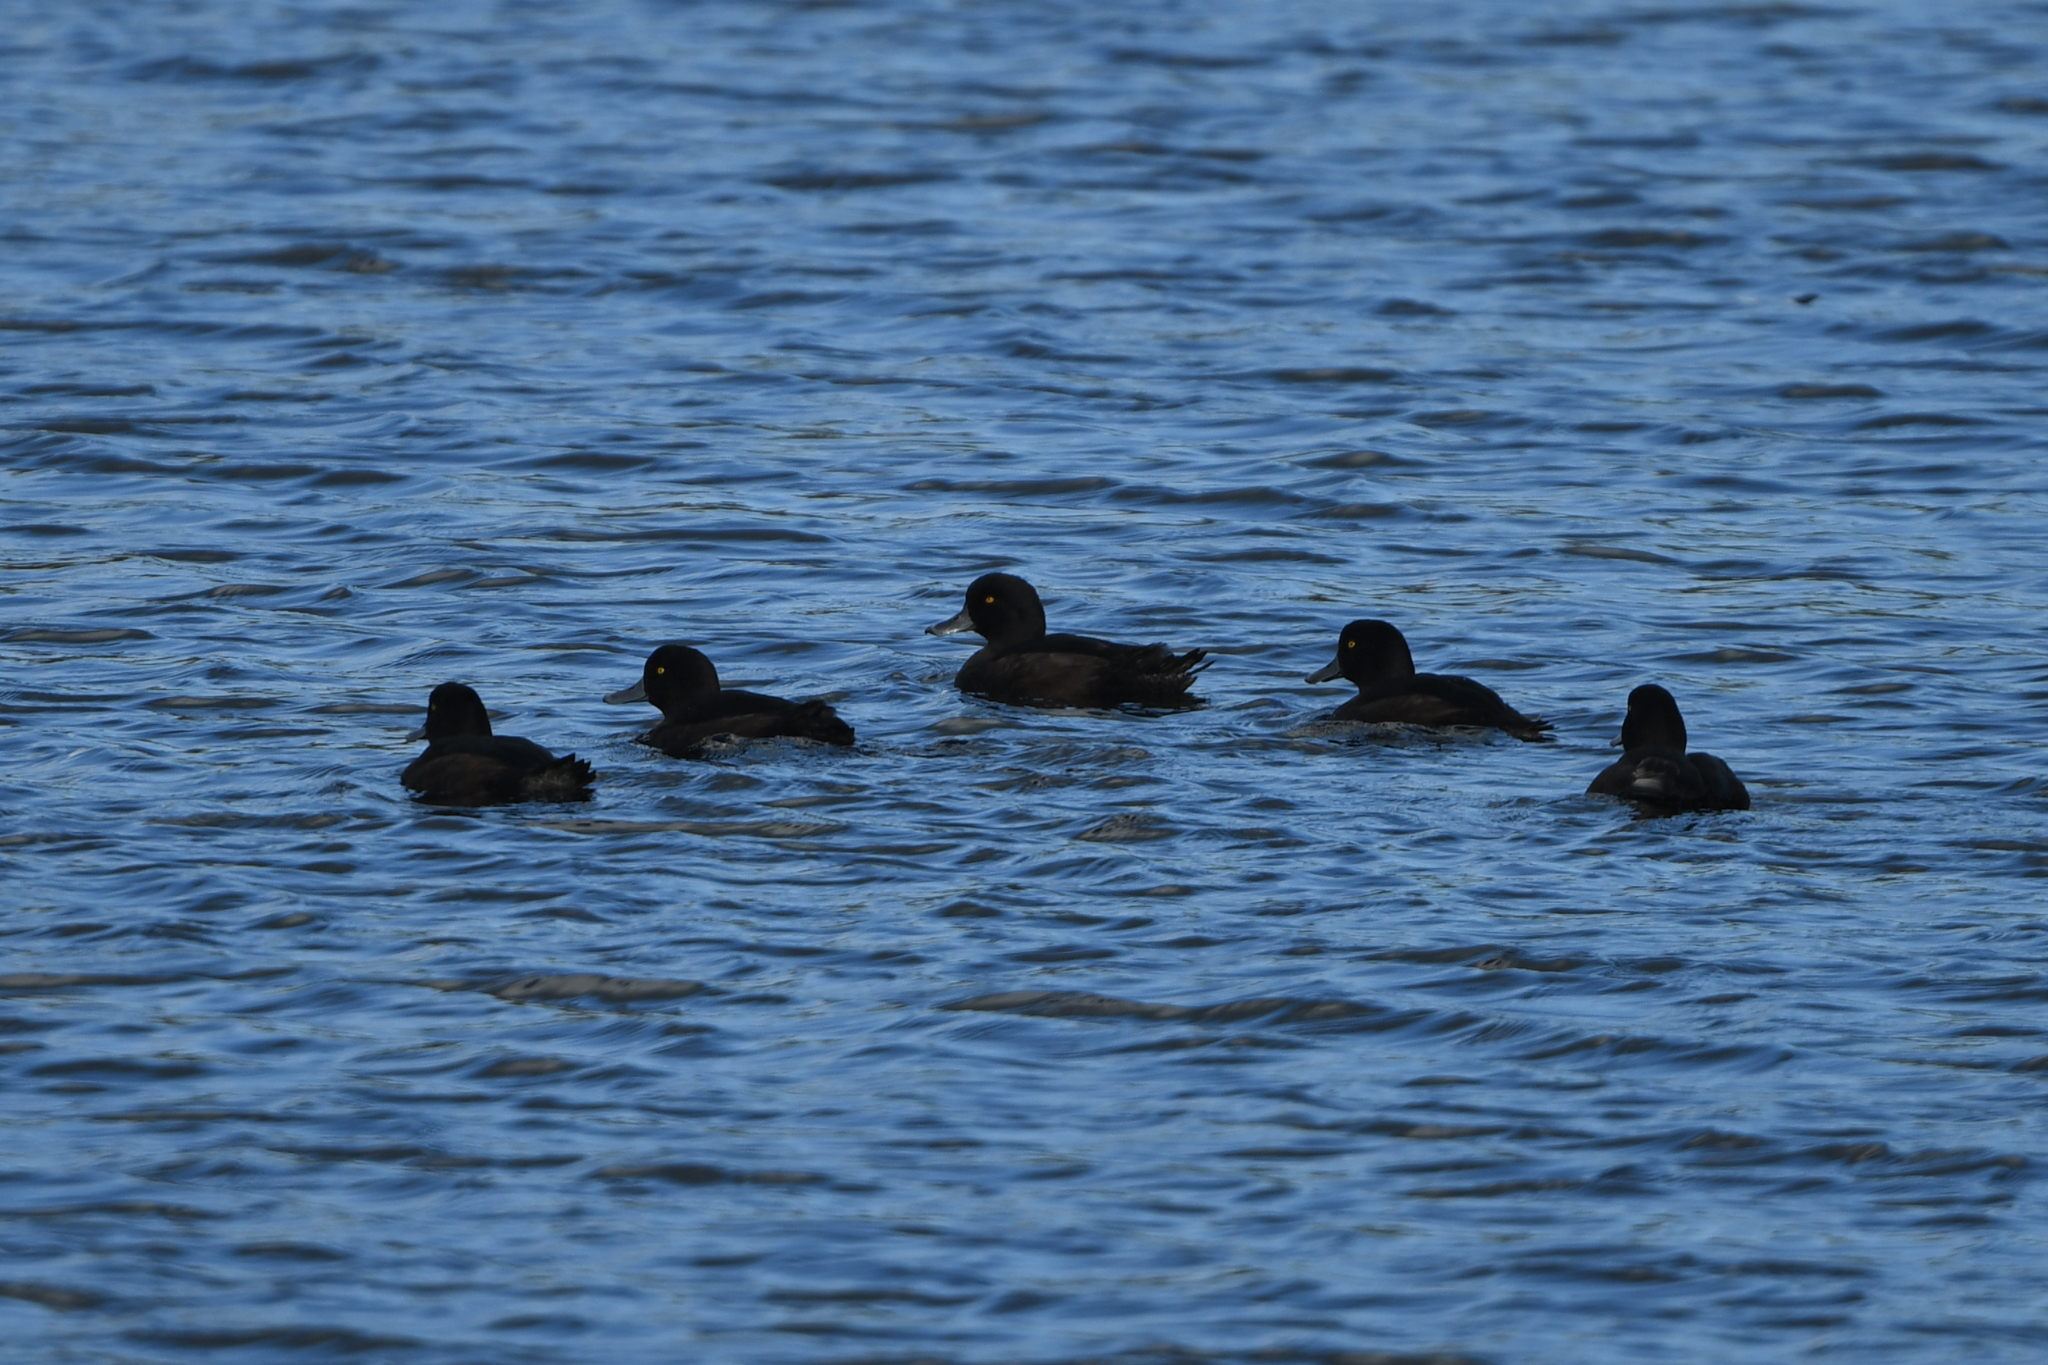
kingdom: Animalia
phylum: Chordata
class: Aves
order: Anseriformes
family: Anatidae
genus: Aythya
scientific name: Aythya novaeseelandiae
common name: New zealand scaup
